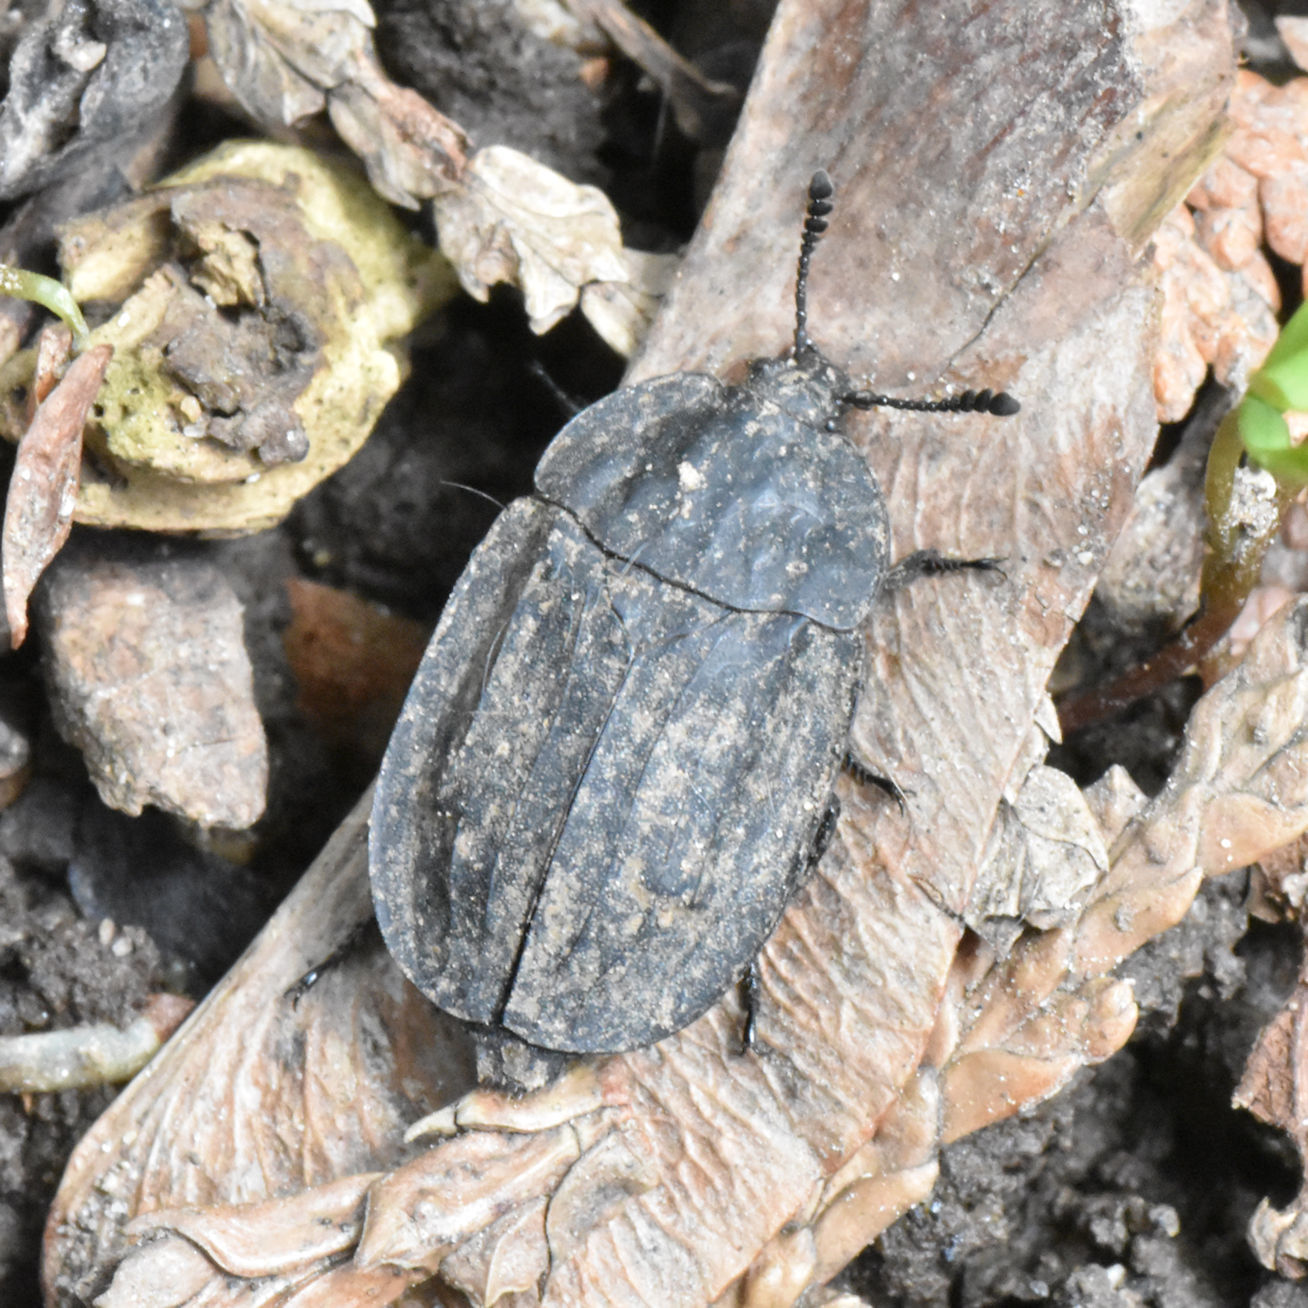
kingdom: Animalia
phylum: Arthropoda
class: Insecta
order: Coleoptera
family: Staphylinidae
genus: Oiceoptoma
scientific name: Oiceoptoma inaequale
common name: Ridged carrion beetle
